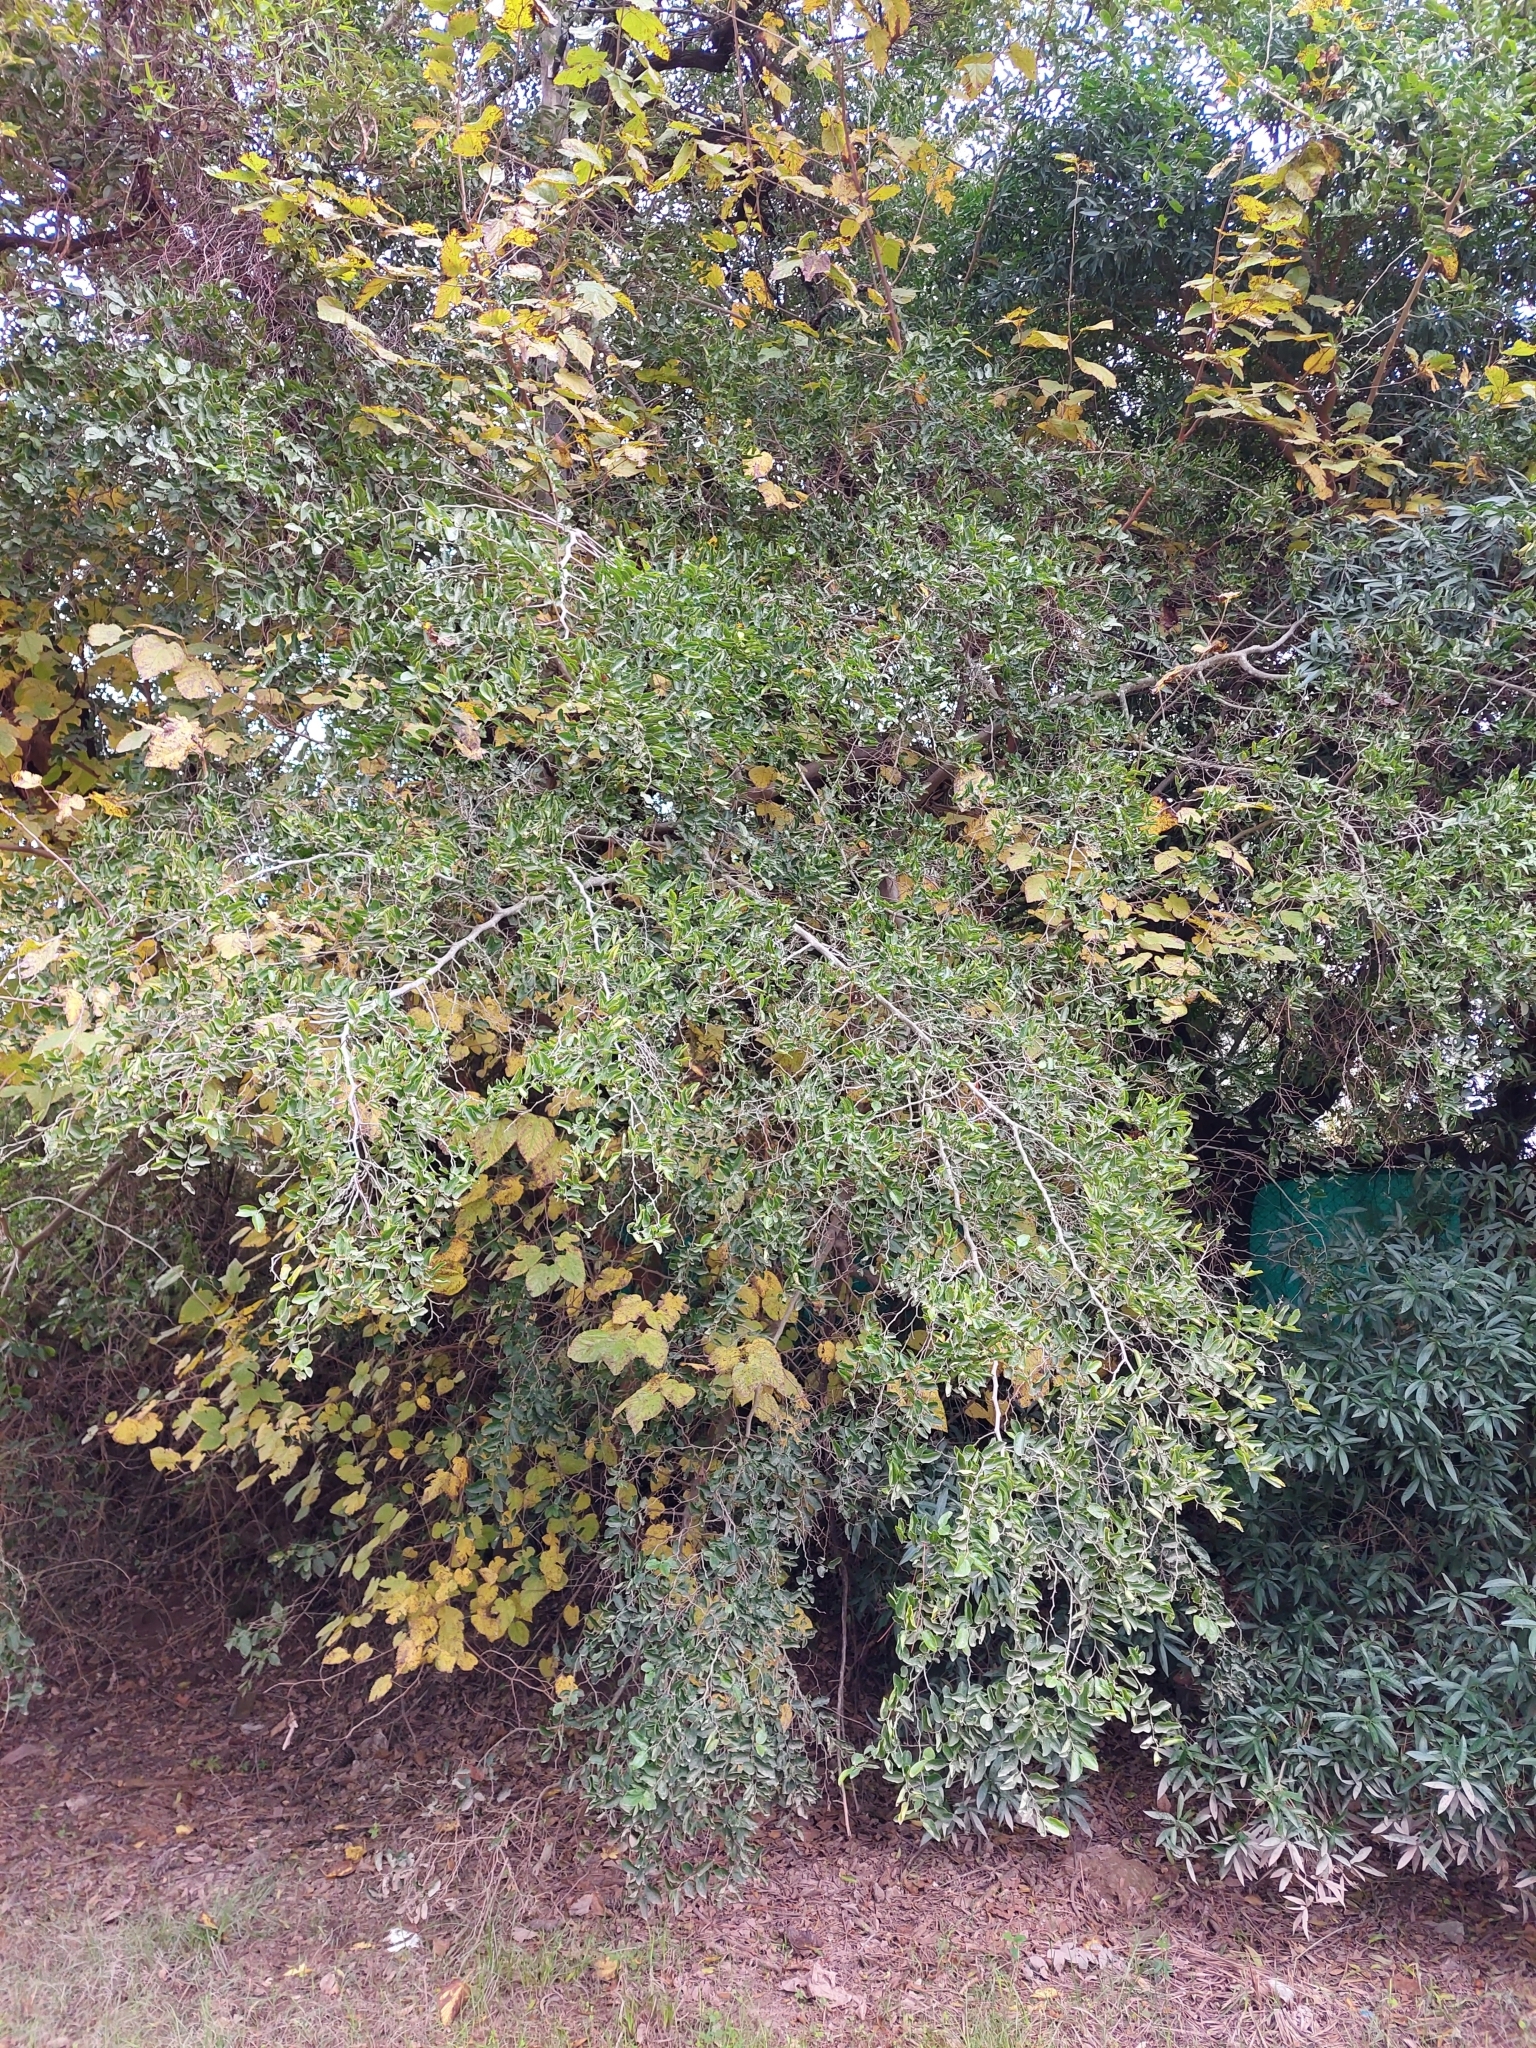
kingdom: Plantae
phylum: Tracheophyta
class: Magnoliopsida
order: Rosales
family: Cannabaceae
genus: Celtis
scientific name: Celtis tala
